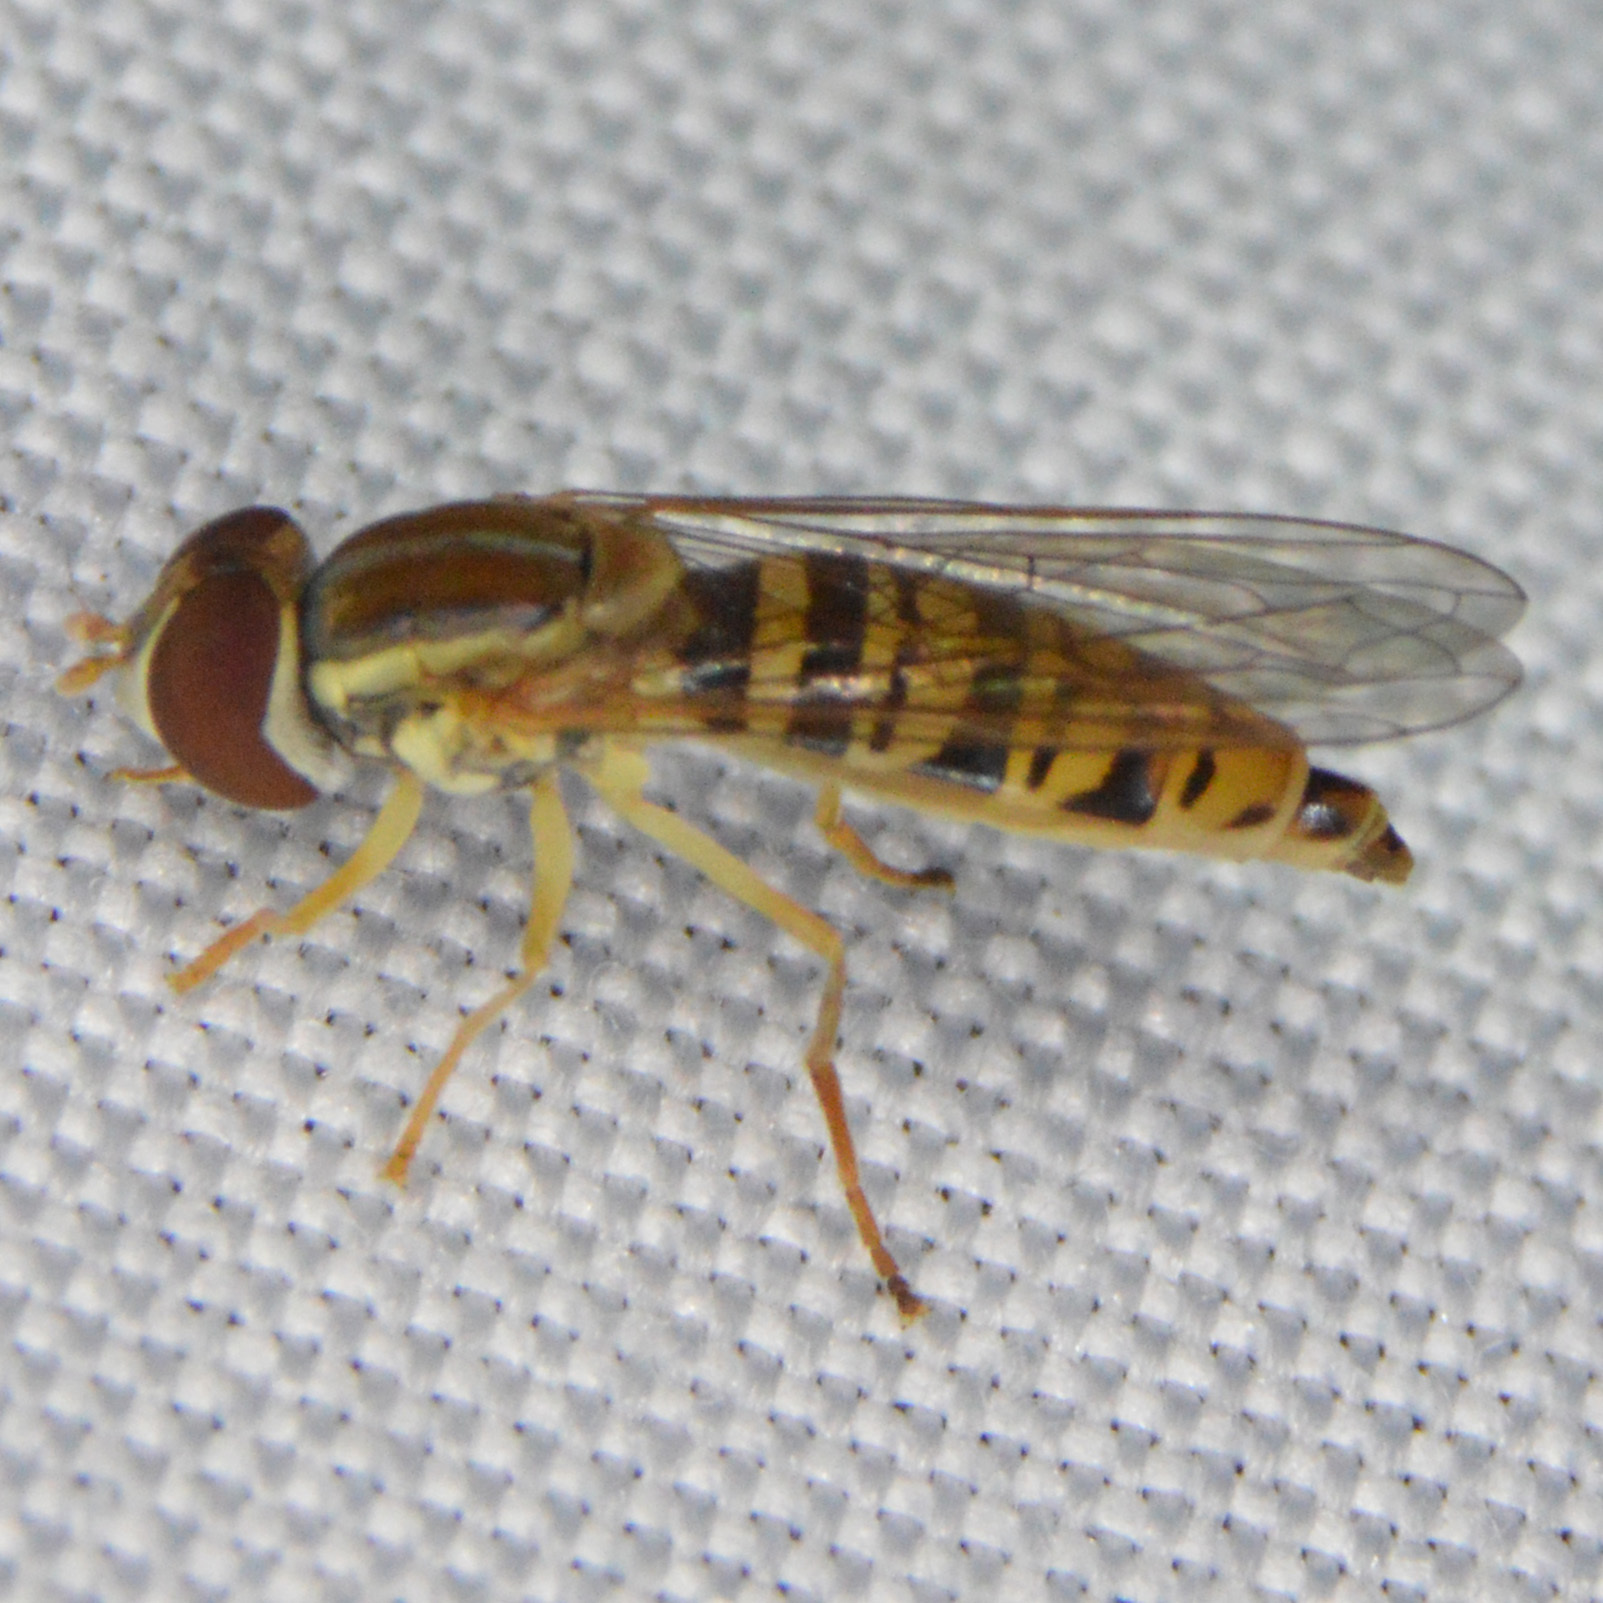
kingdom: Animalia
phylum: Arthropoda
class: Insecta
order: Diptera
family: Syrphidae
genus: Toxomerus
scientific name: Toxomerus politus
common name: Maize calligrapher
